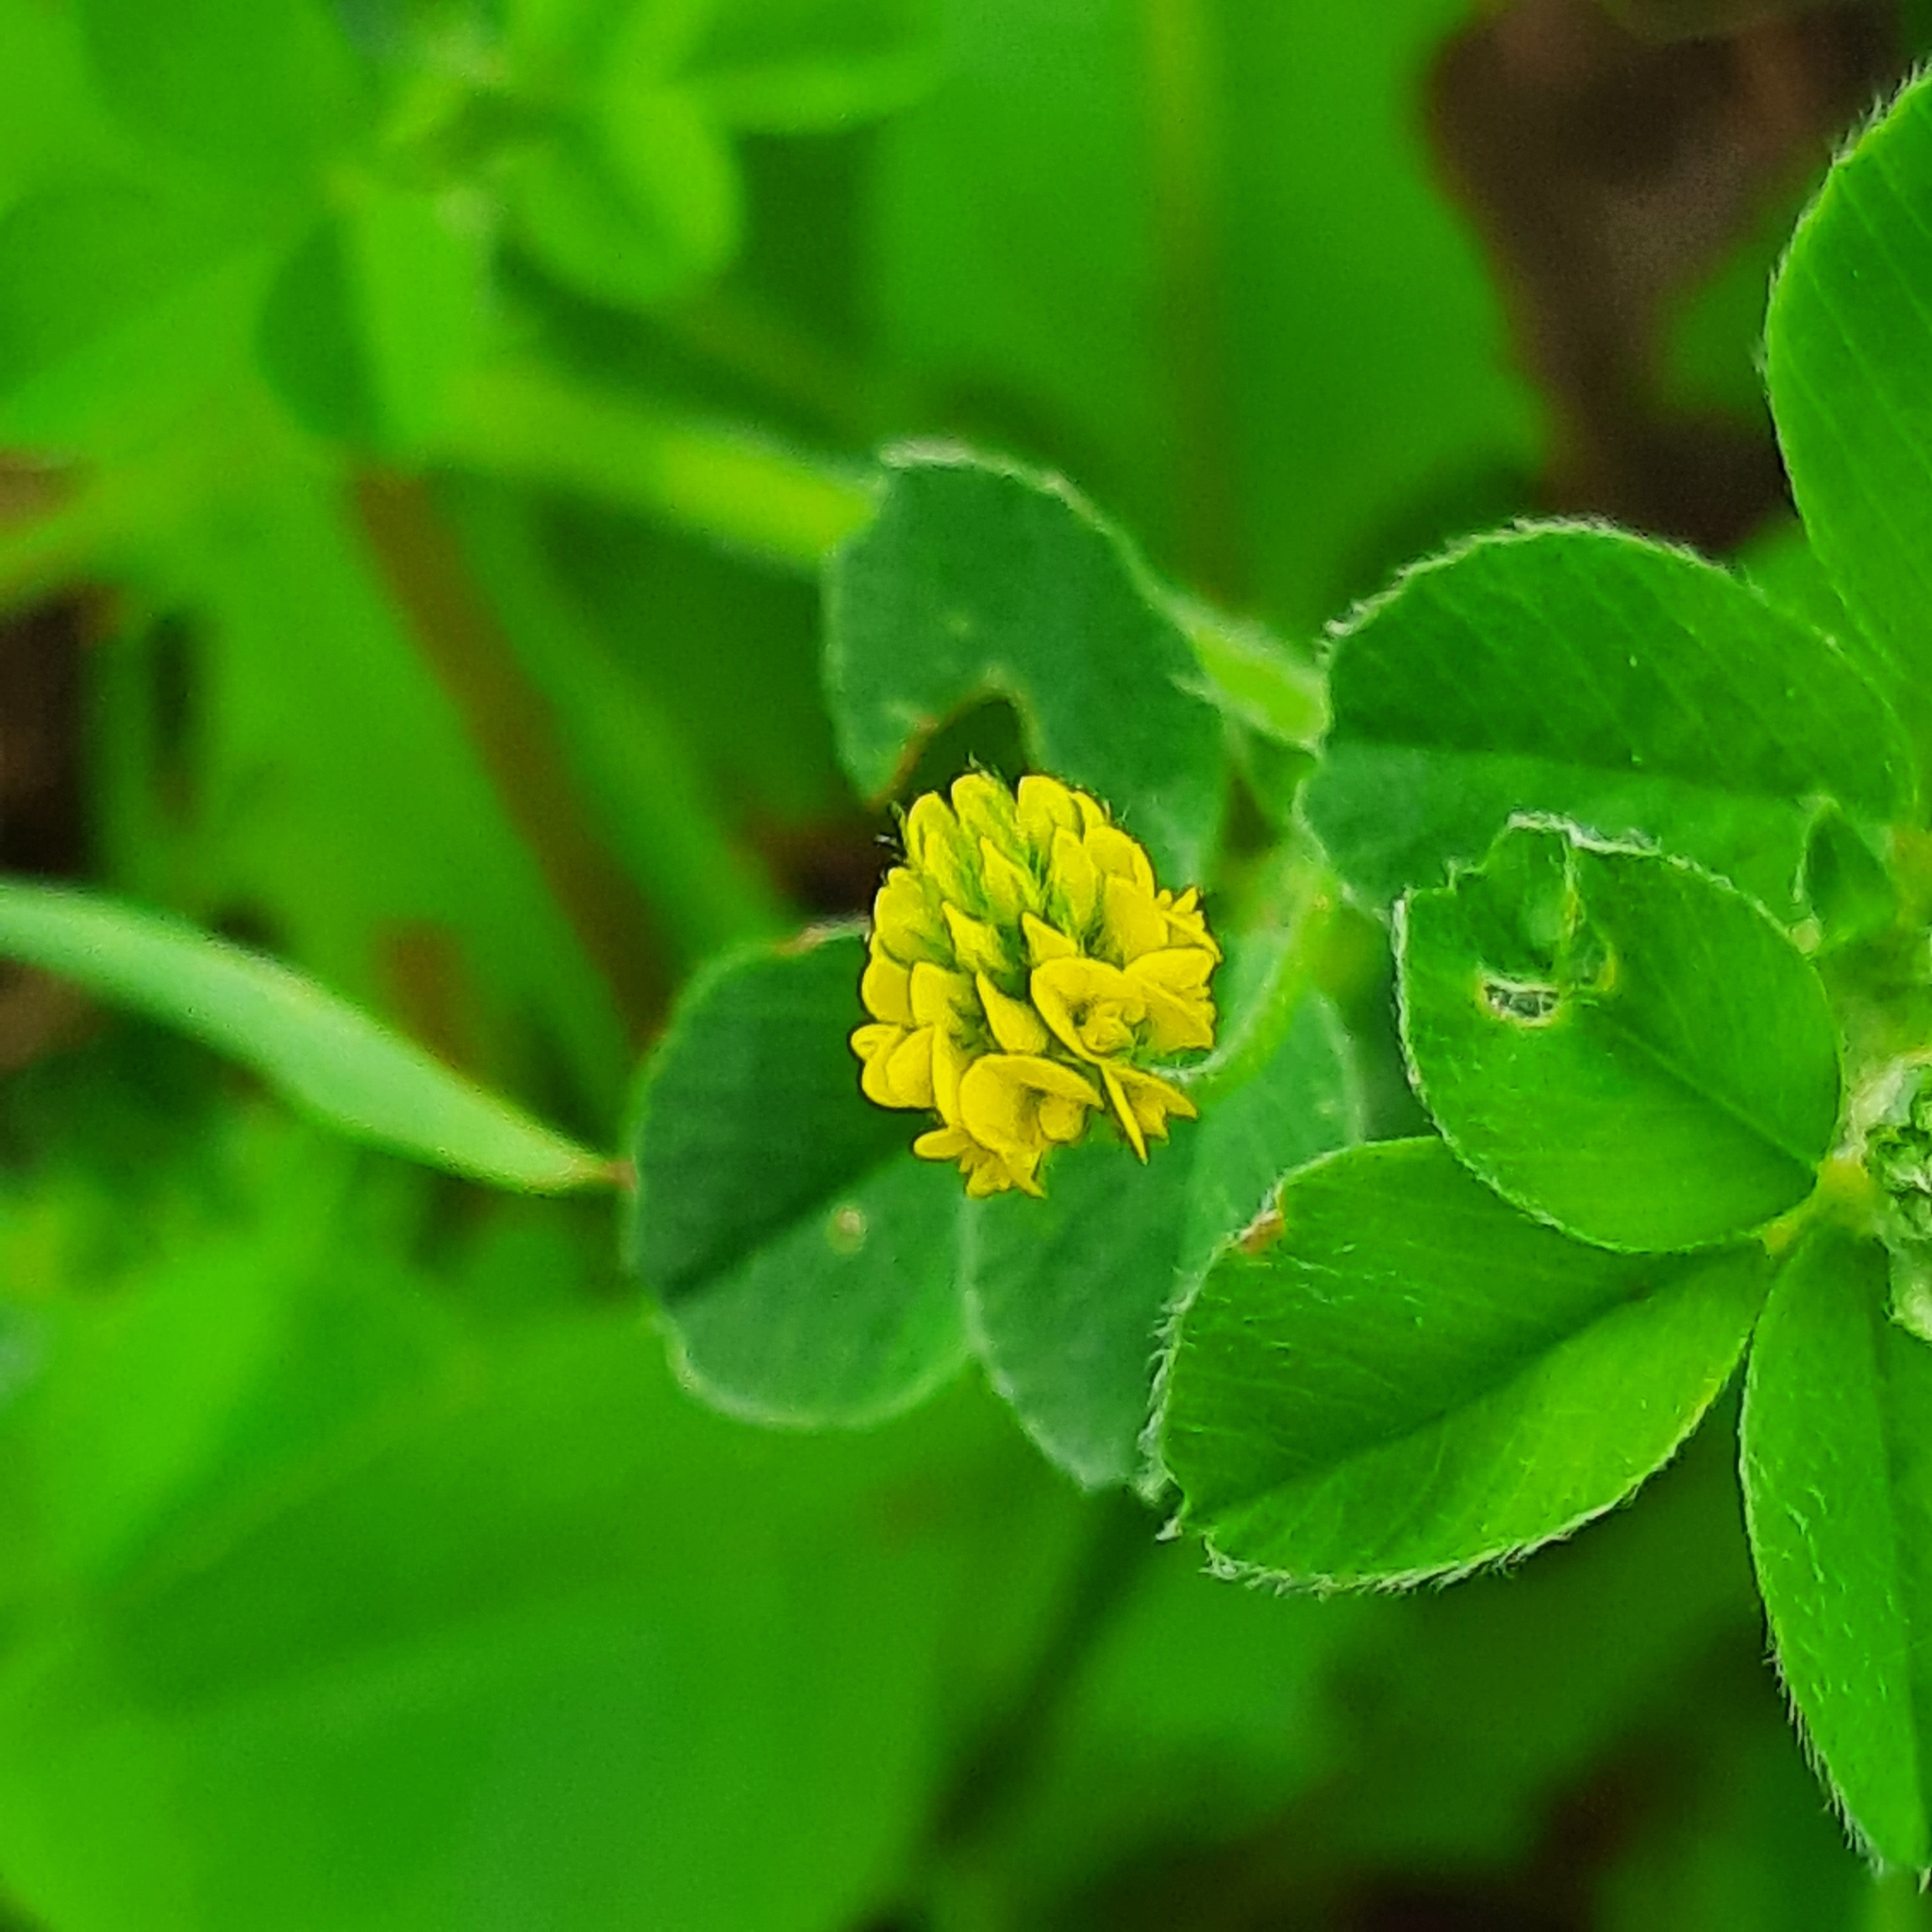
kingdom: Plantae
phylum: Tracheophyta
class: Magnoliopsida
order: Fabales
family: Fabaceae
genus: Medicago
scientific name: Medicago lupulina
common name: Black medick
